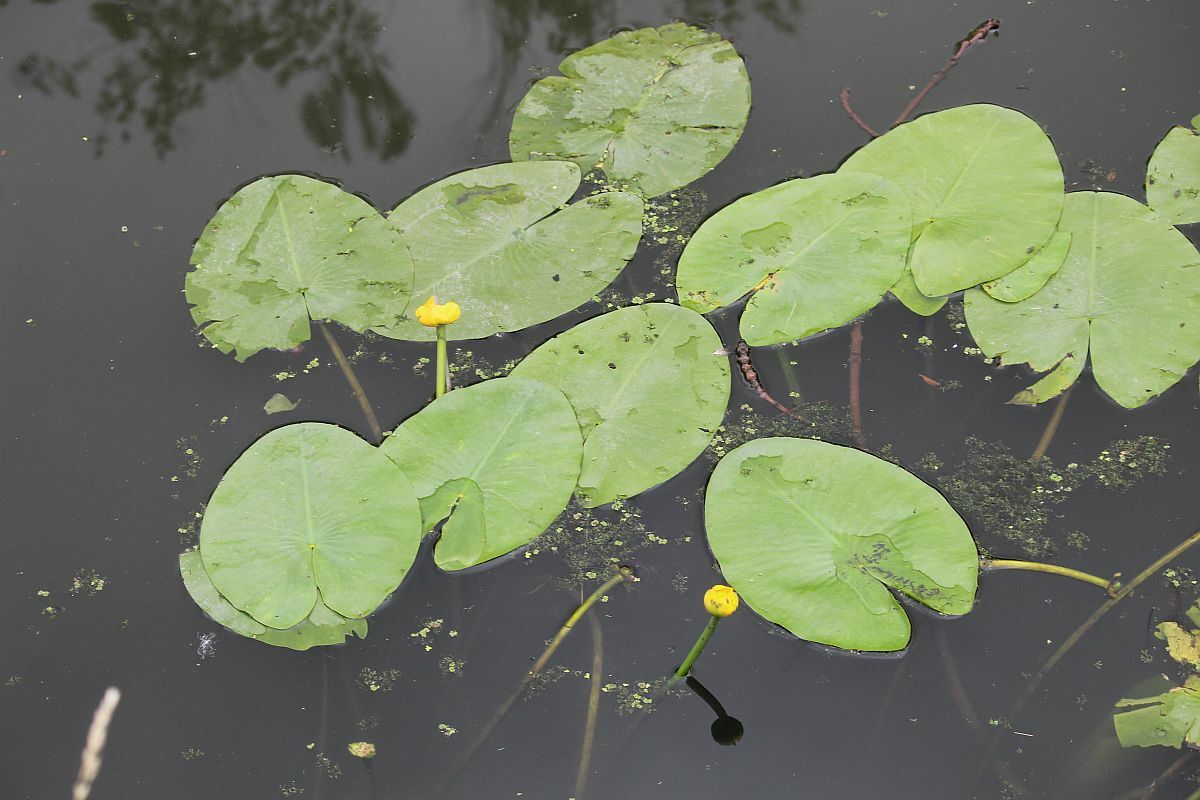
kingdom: Plantae
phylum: Tracheophyta
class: Magnoliopsida
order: Nymphaeales
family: Nymphaeaceae
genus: Nuphar
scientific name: Nuphar lutea
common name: Yellow water-lily
